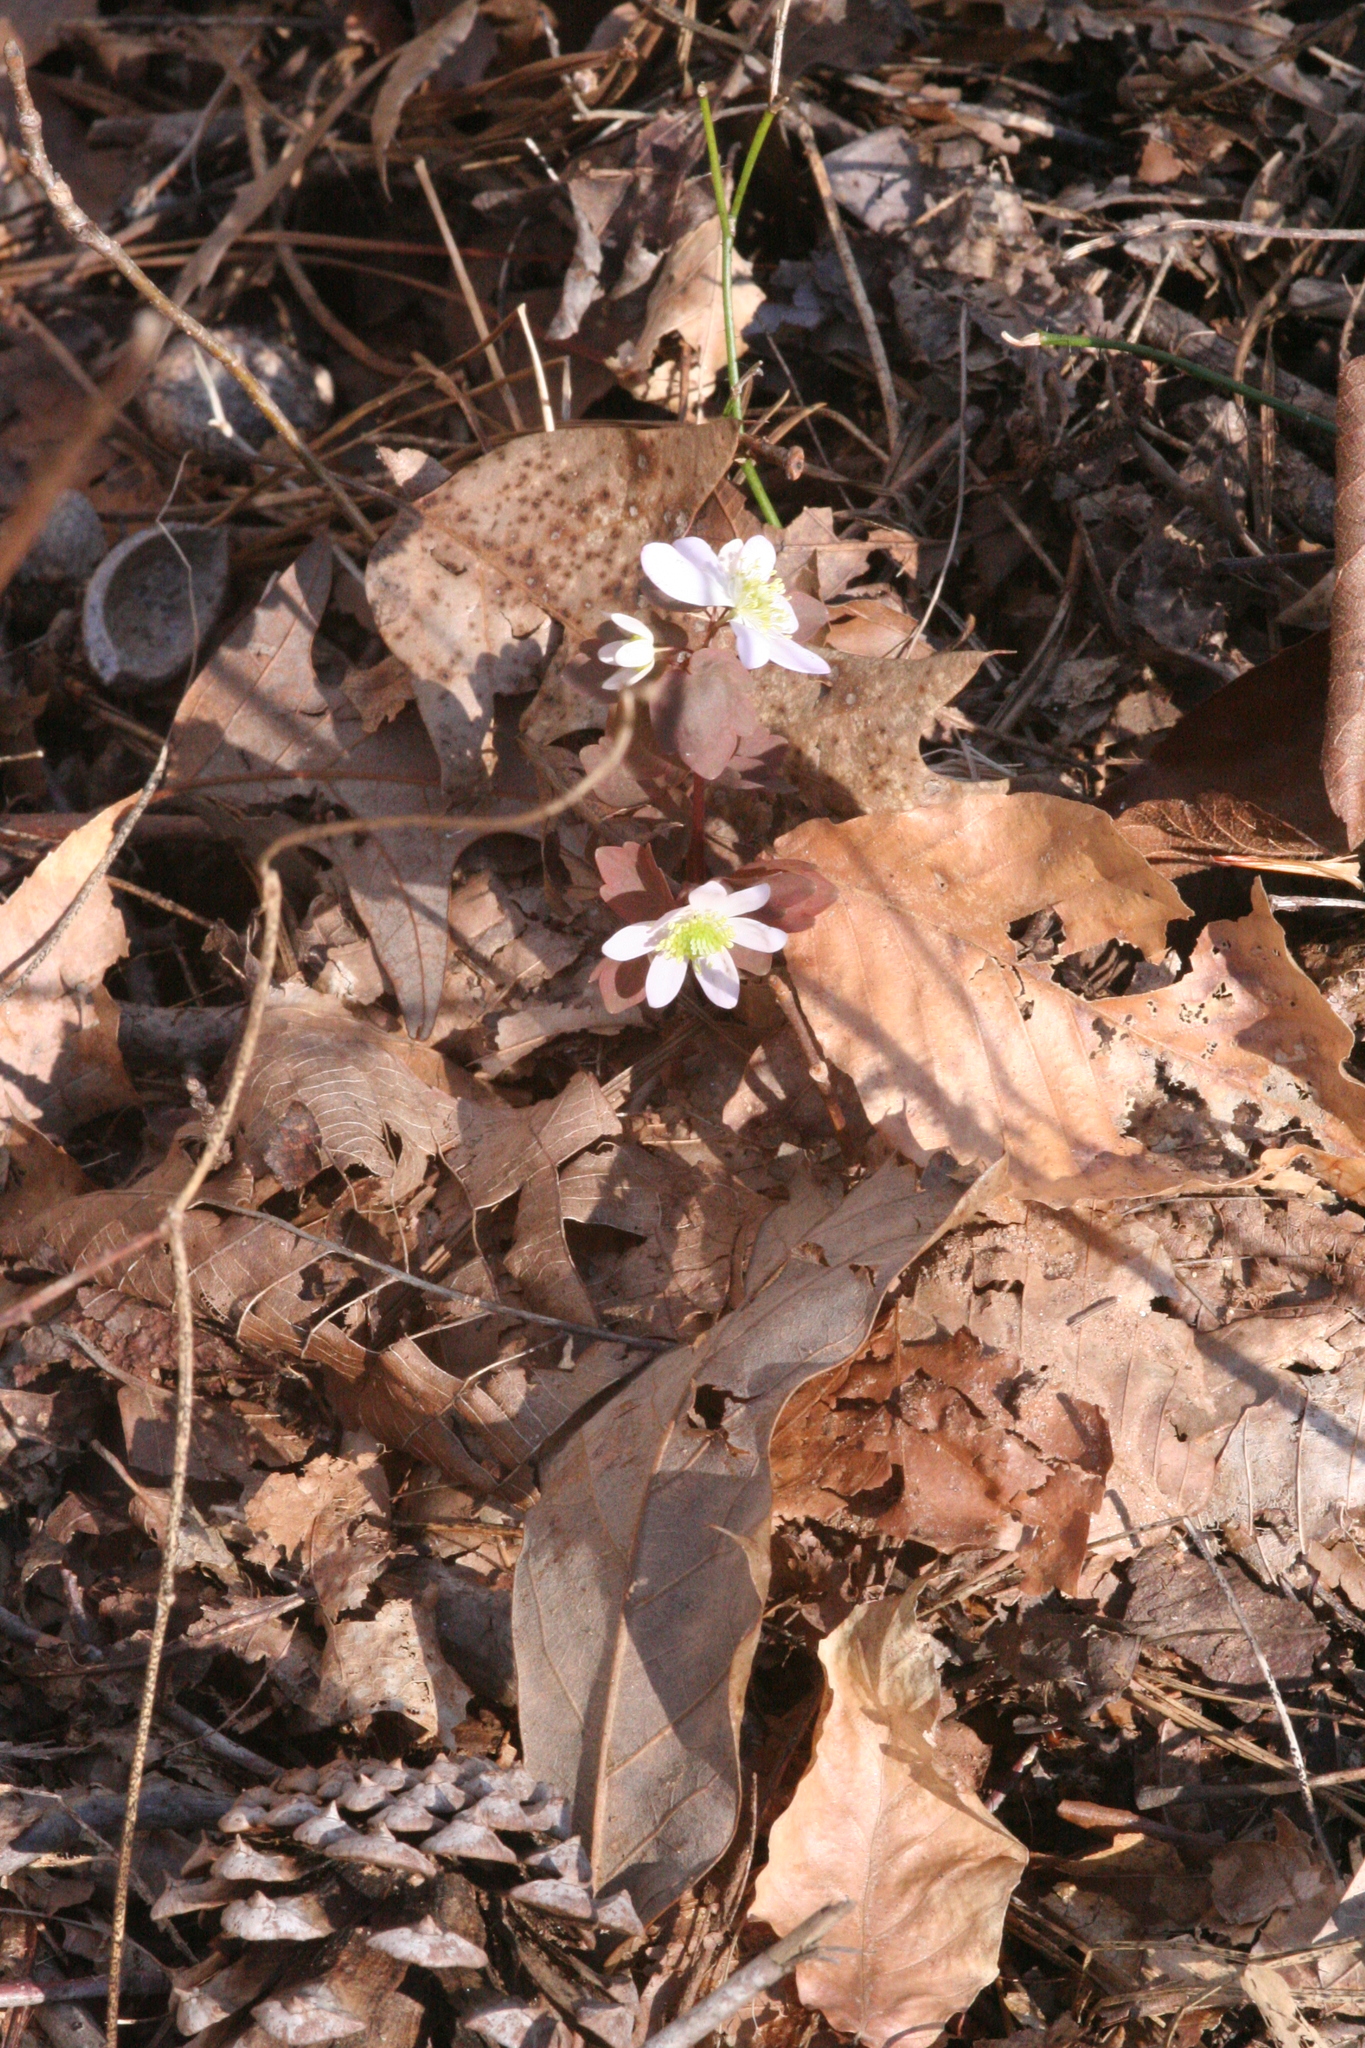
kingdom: Plantae
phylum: Tracheophyta
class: Magnoliopsida
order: Ranunculales
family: Ranunculaceae
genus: Thalictrum
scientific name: Thalictrum thalictroides
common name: Rue-anemone
